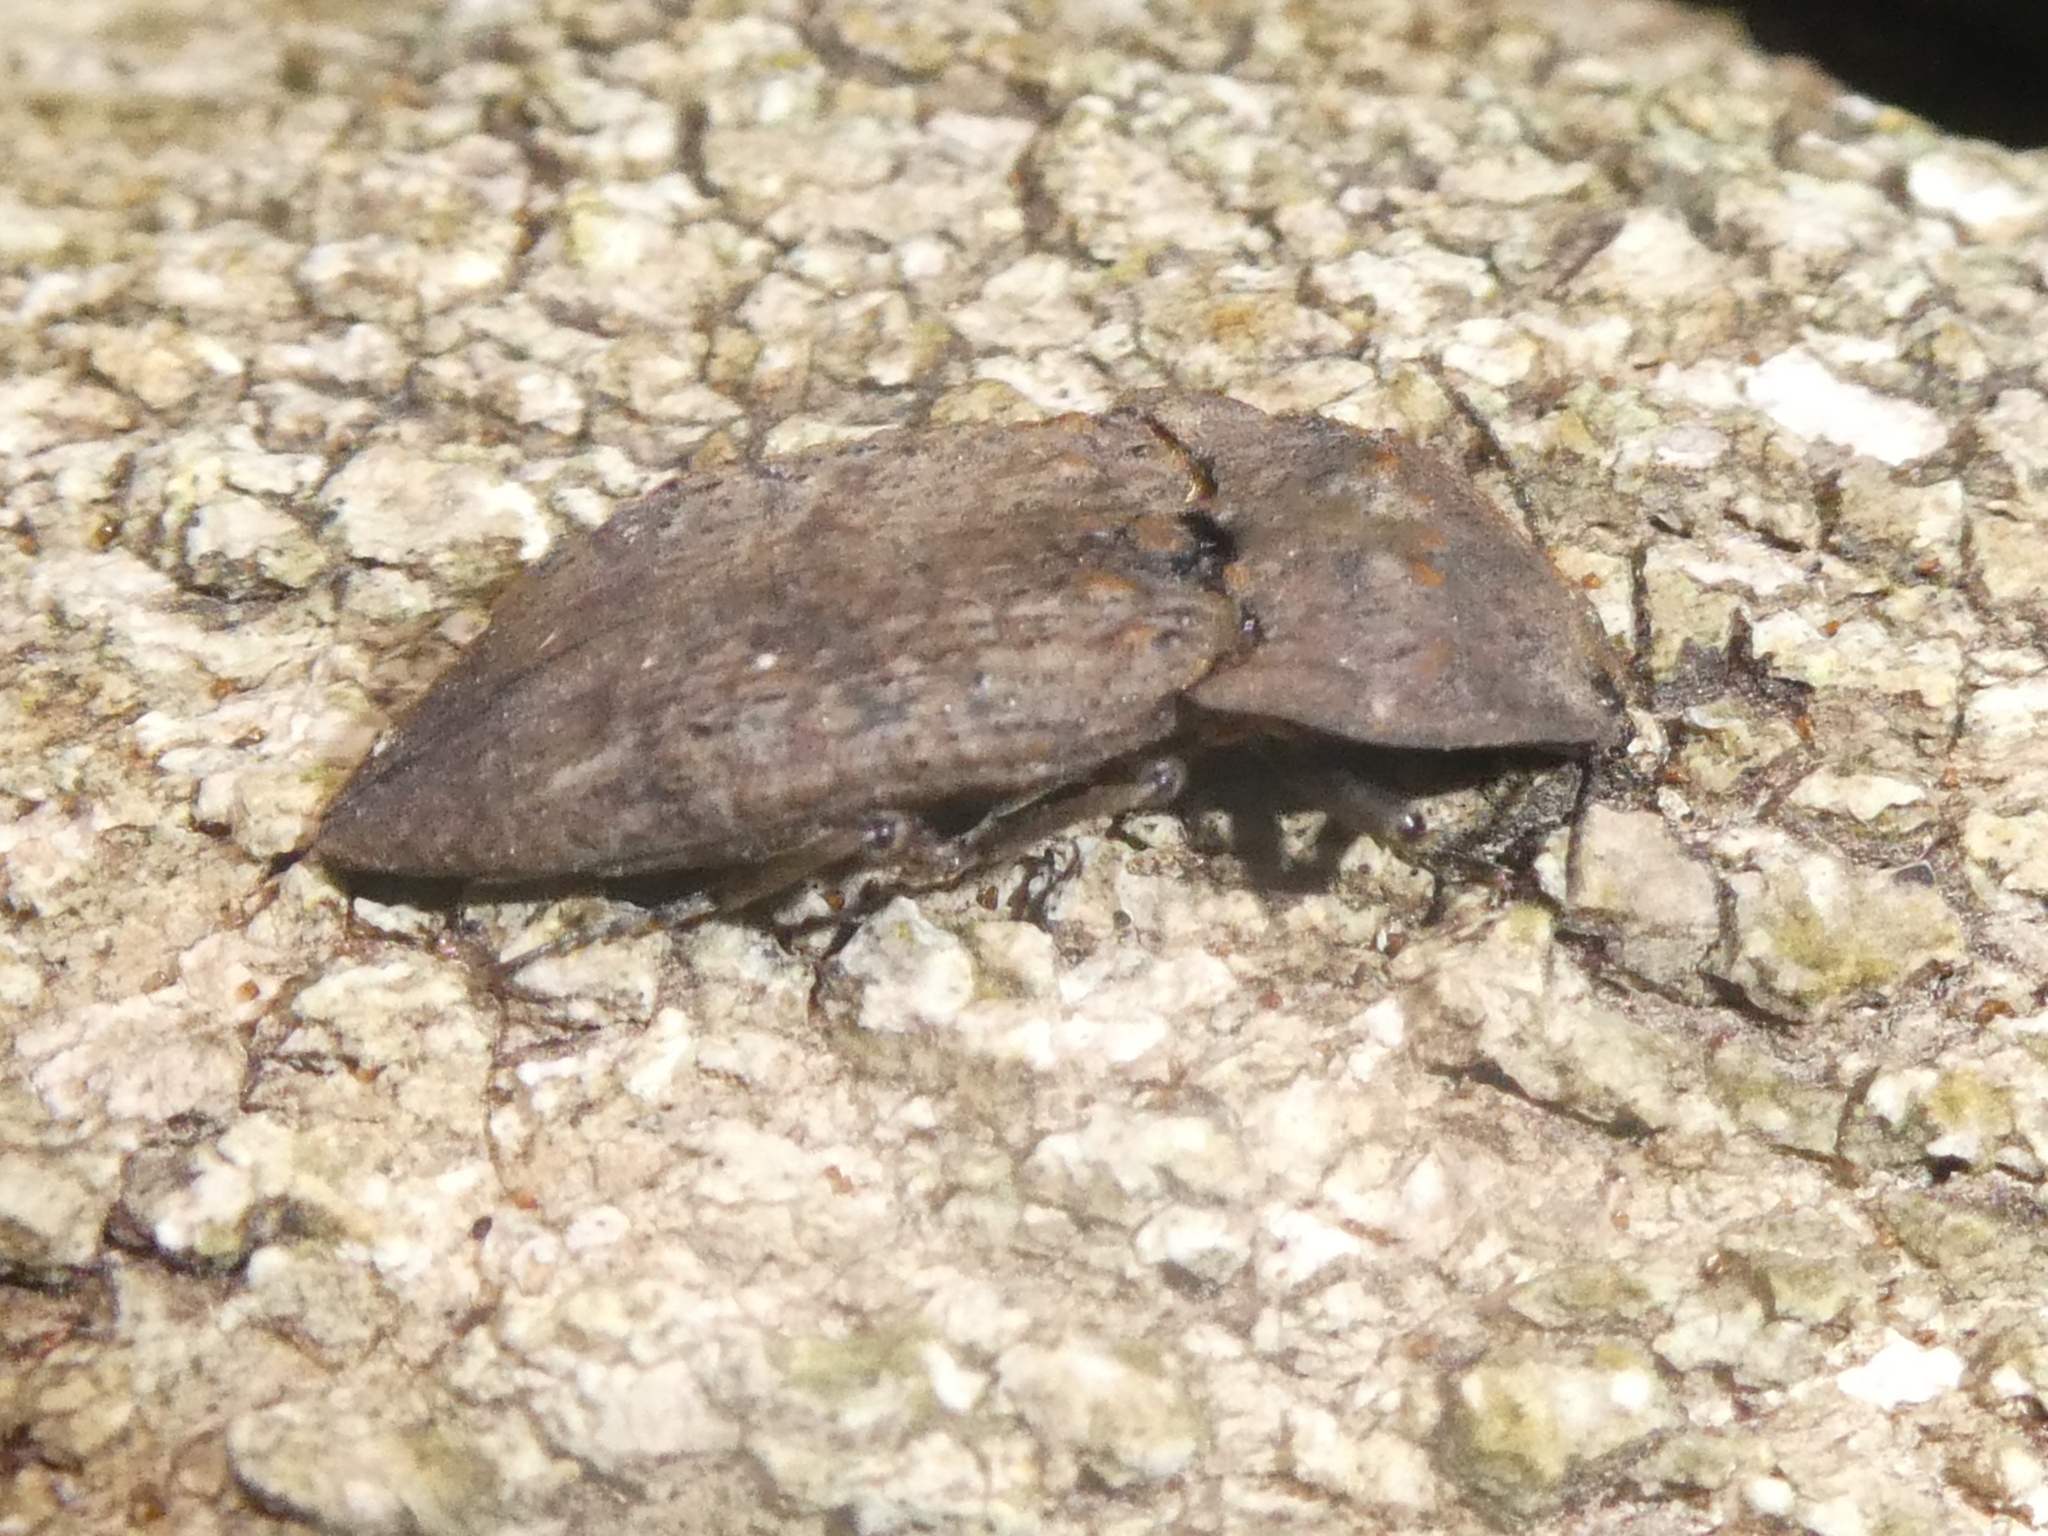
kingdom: Animalia
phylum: Arthropoda
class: Insecta
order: Coleoptera
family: Elateridae
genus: Amychus
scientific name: Amychus
